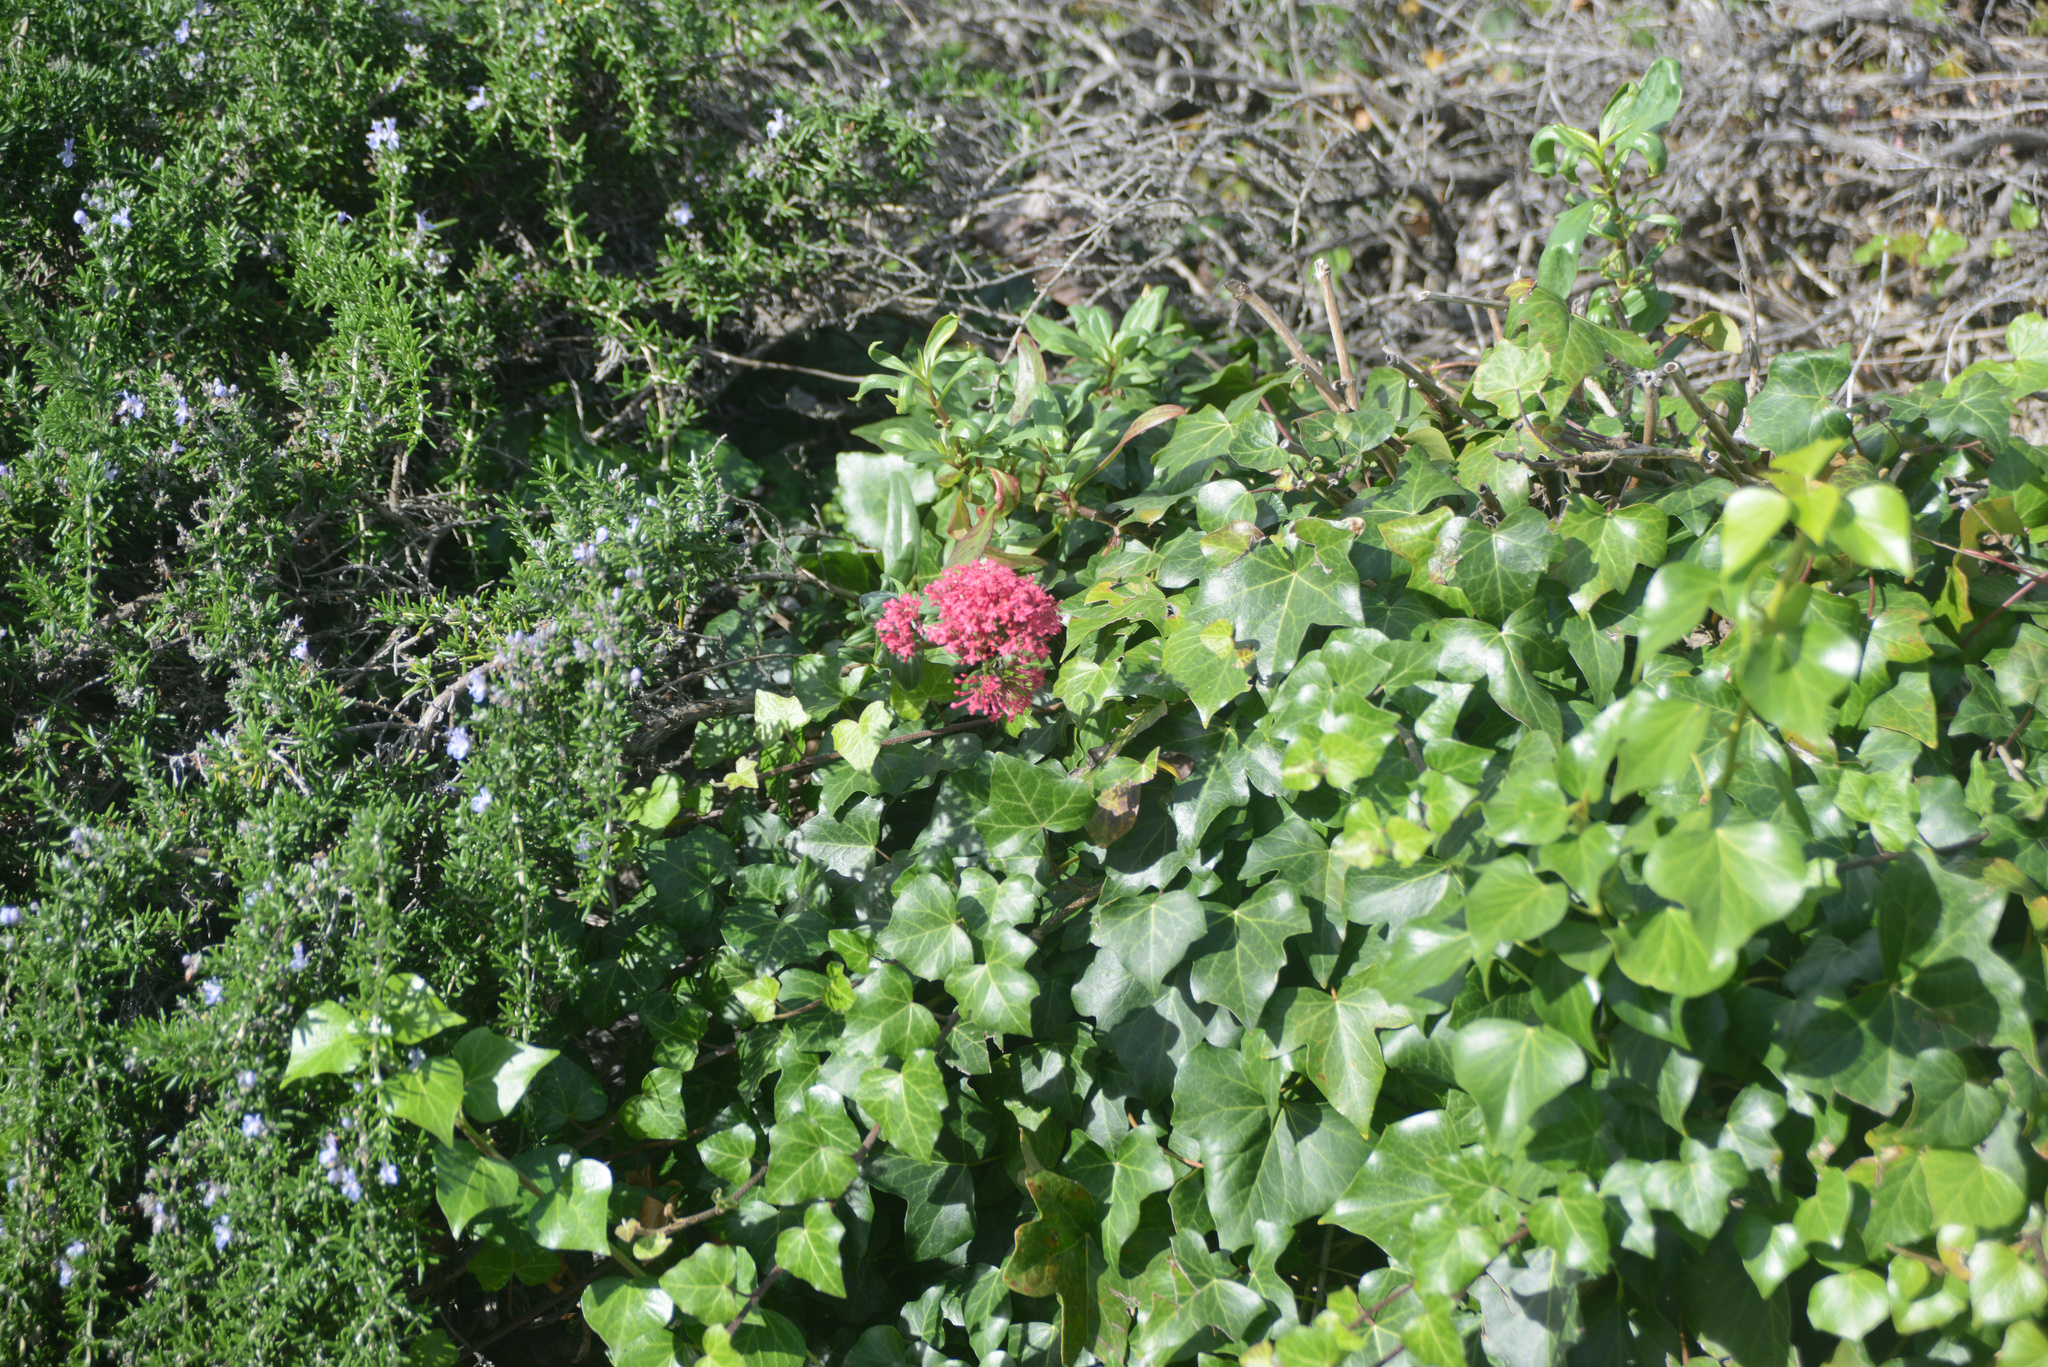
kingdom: Plantae
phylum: Tracheophyta
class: Magnoliopsida
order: Dipsacales
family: Caprifoliaceae
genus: Centranthus
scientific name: Centranthus ruber
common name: Red valerian
